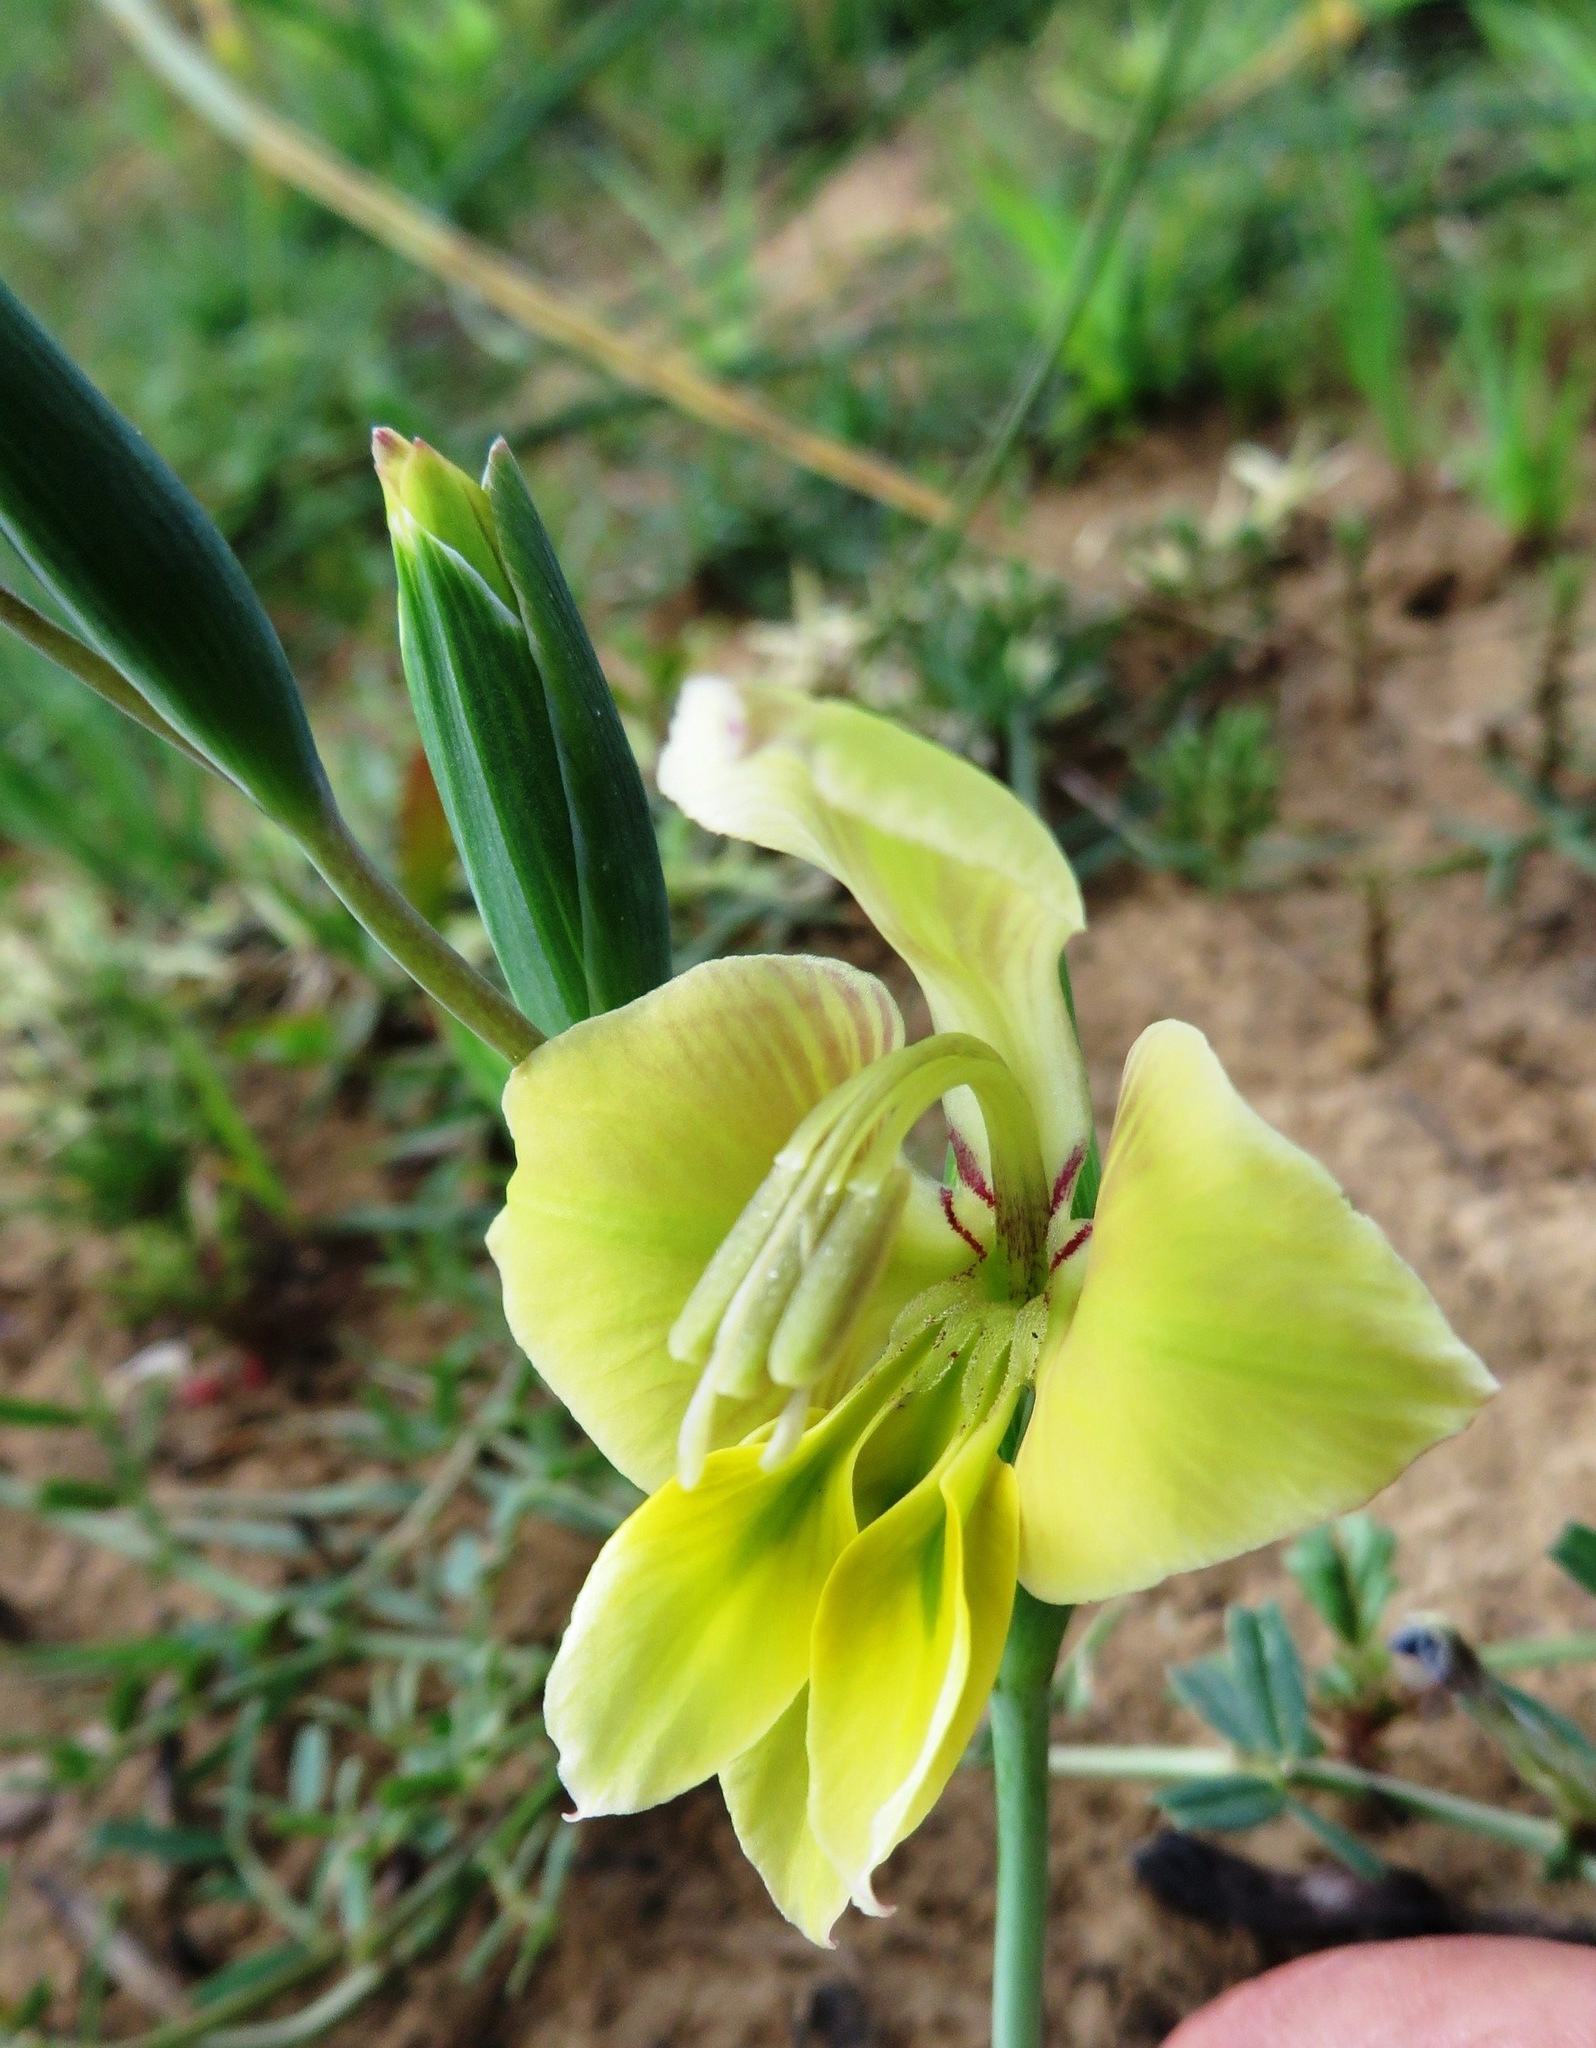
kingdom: Plantae
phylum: Tracheophyta
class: Liliopsida
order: Asparagales
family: Iridaceae
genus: Gladiolus
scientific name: Gladiolus virescens
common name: Yellow kalkoentjie
